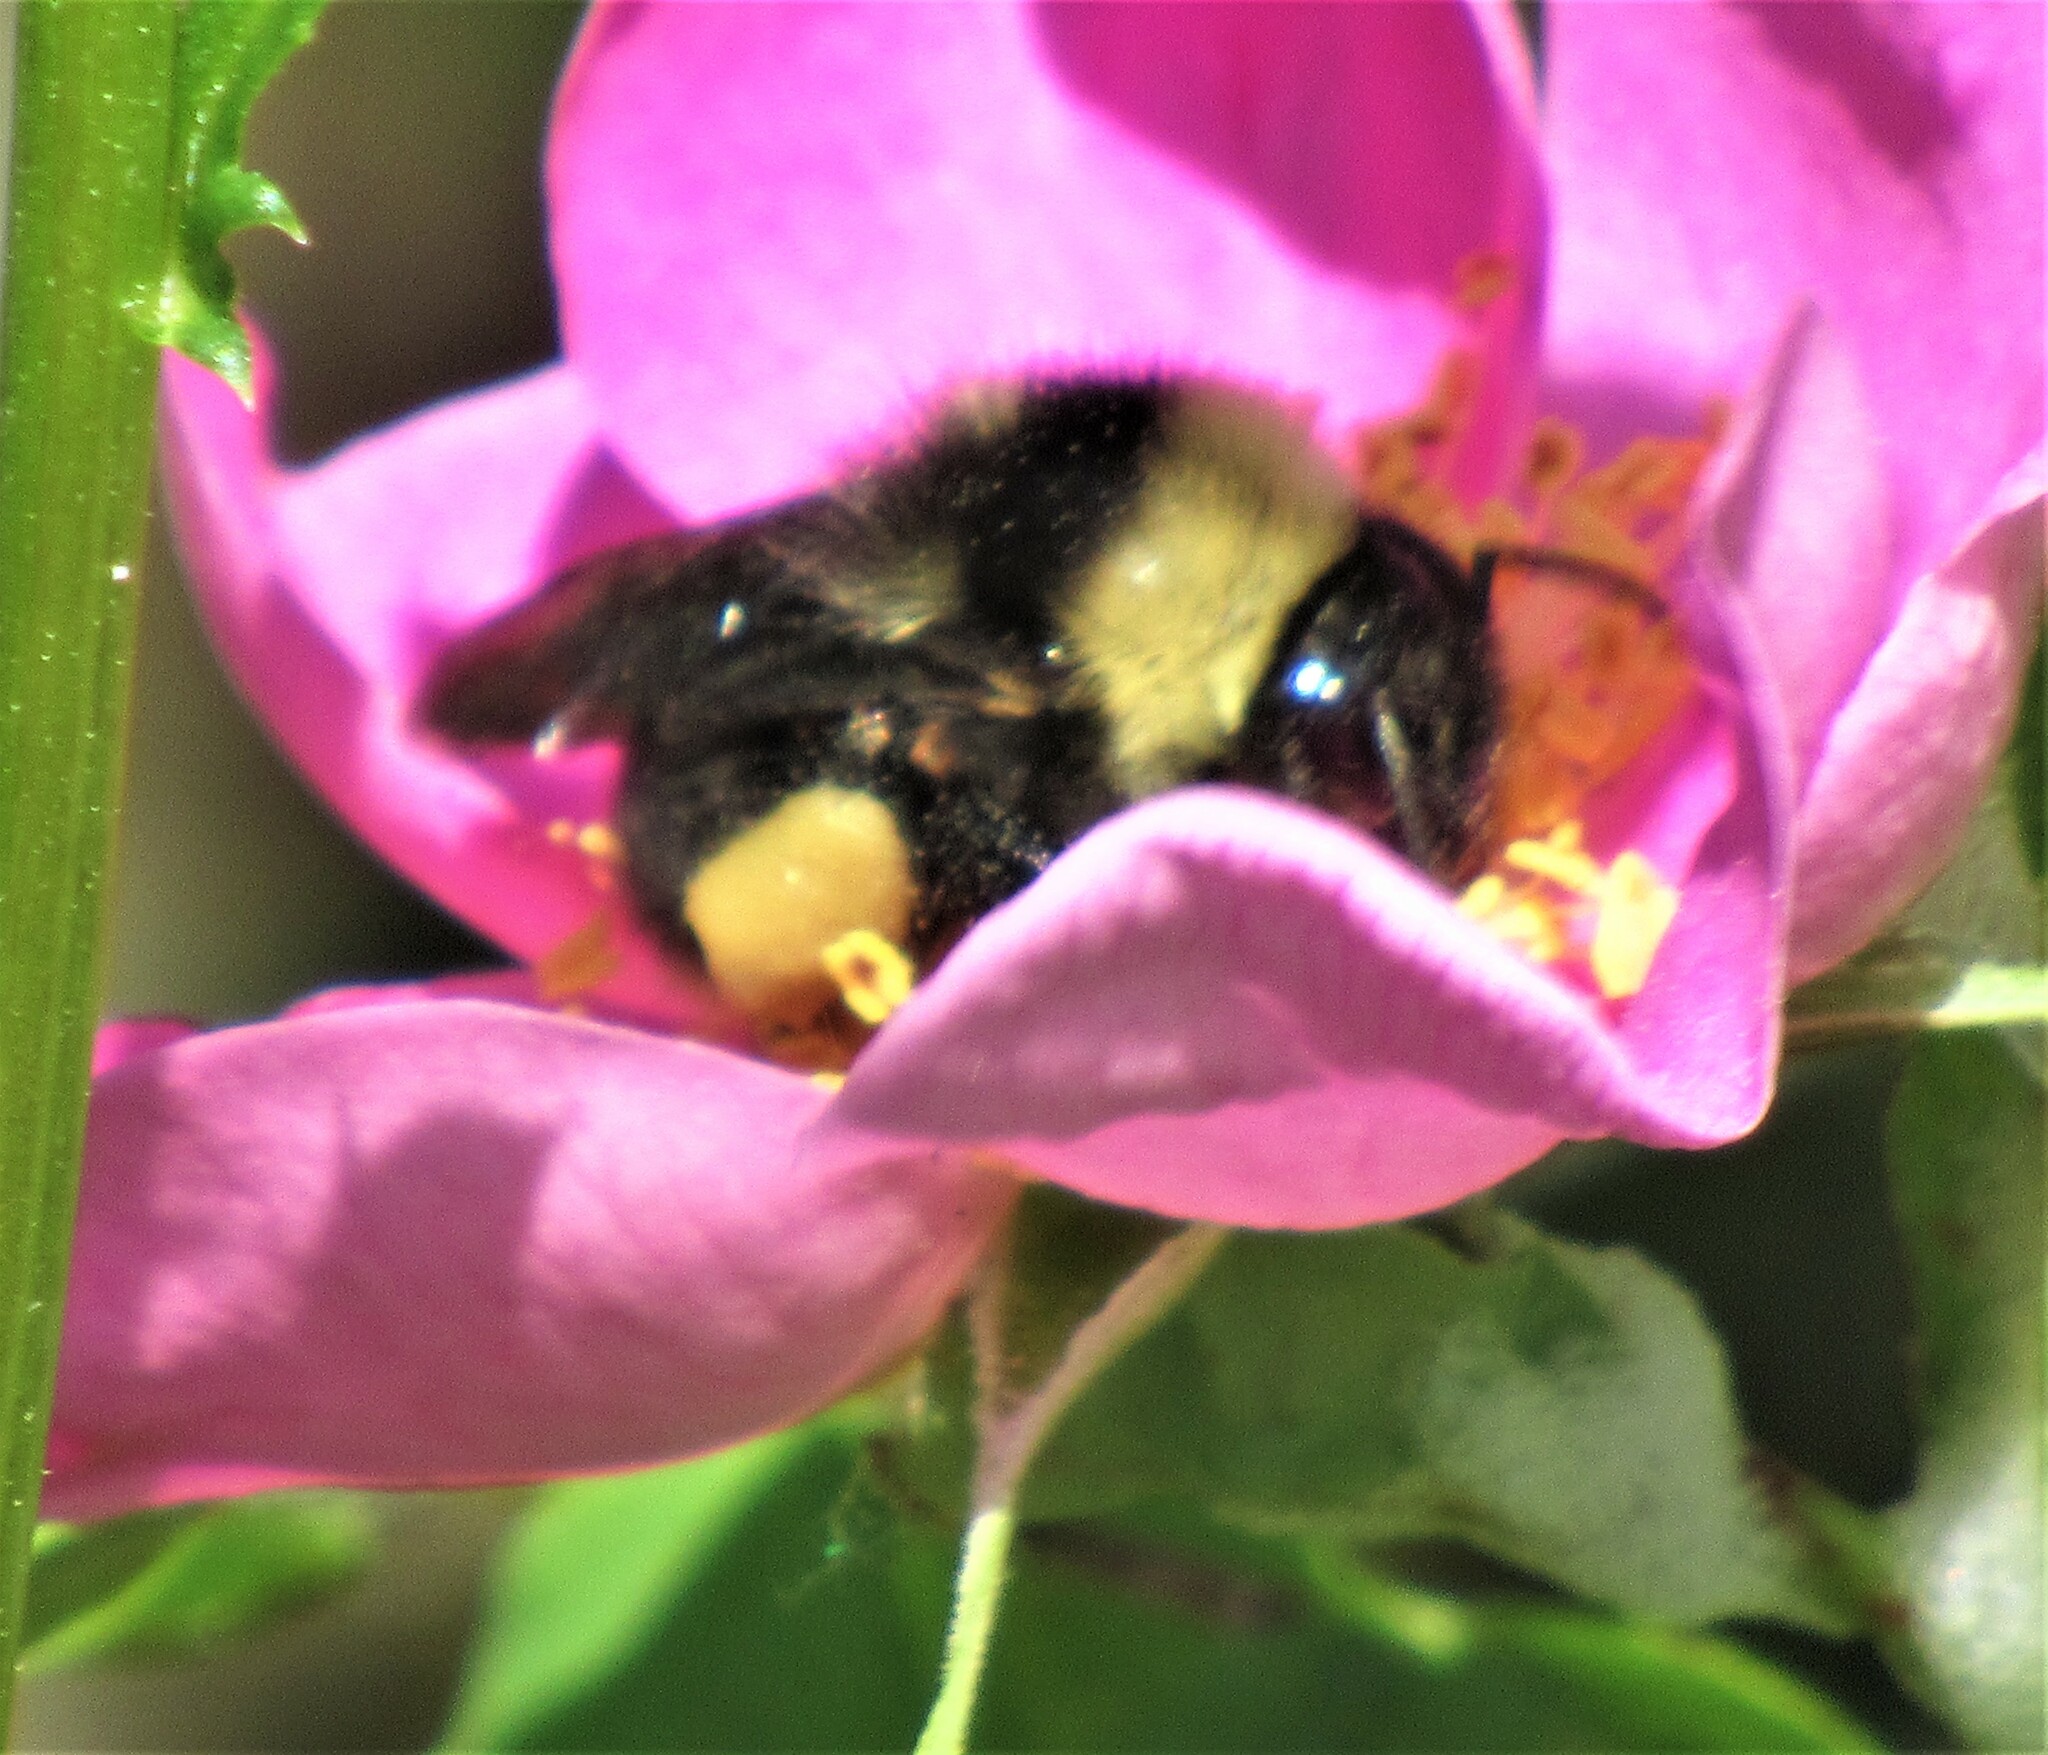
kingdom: Animalia
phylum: Arthropoda
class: Insecta
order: Hymenoptera
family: Apidae
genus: Bombus
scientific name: Bombus californicus
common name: California bumble bee
